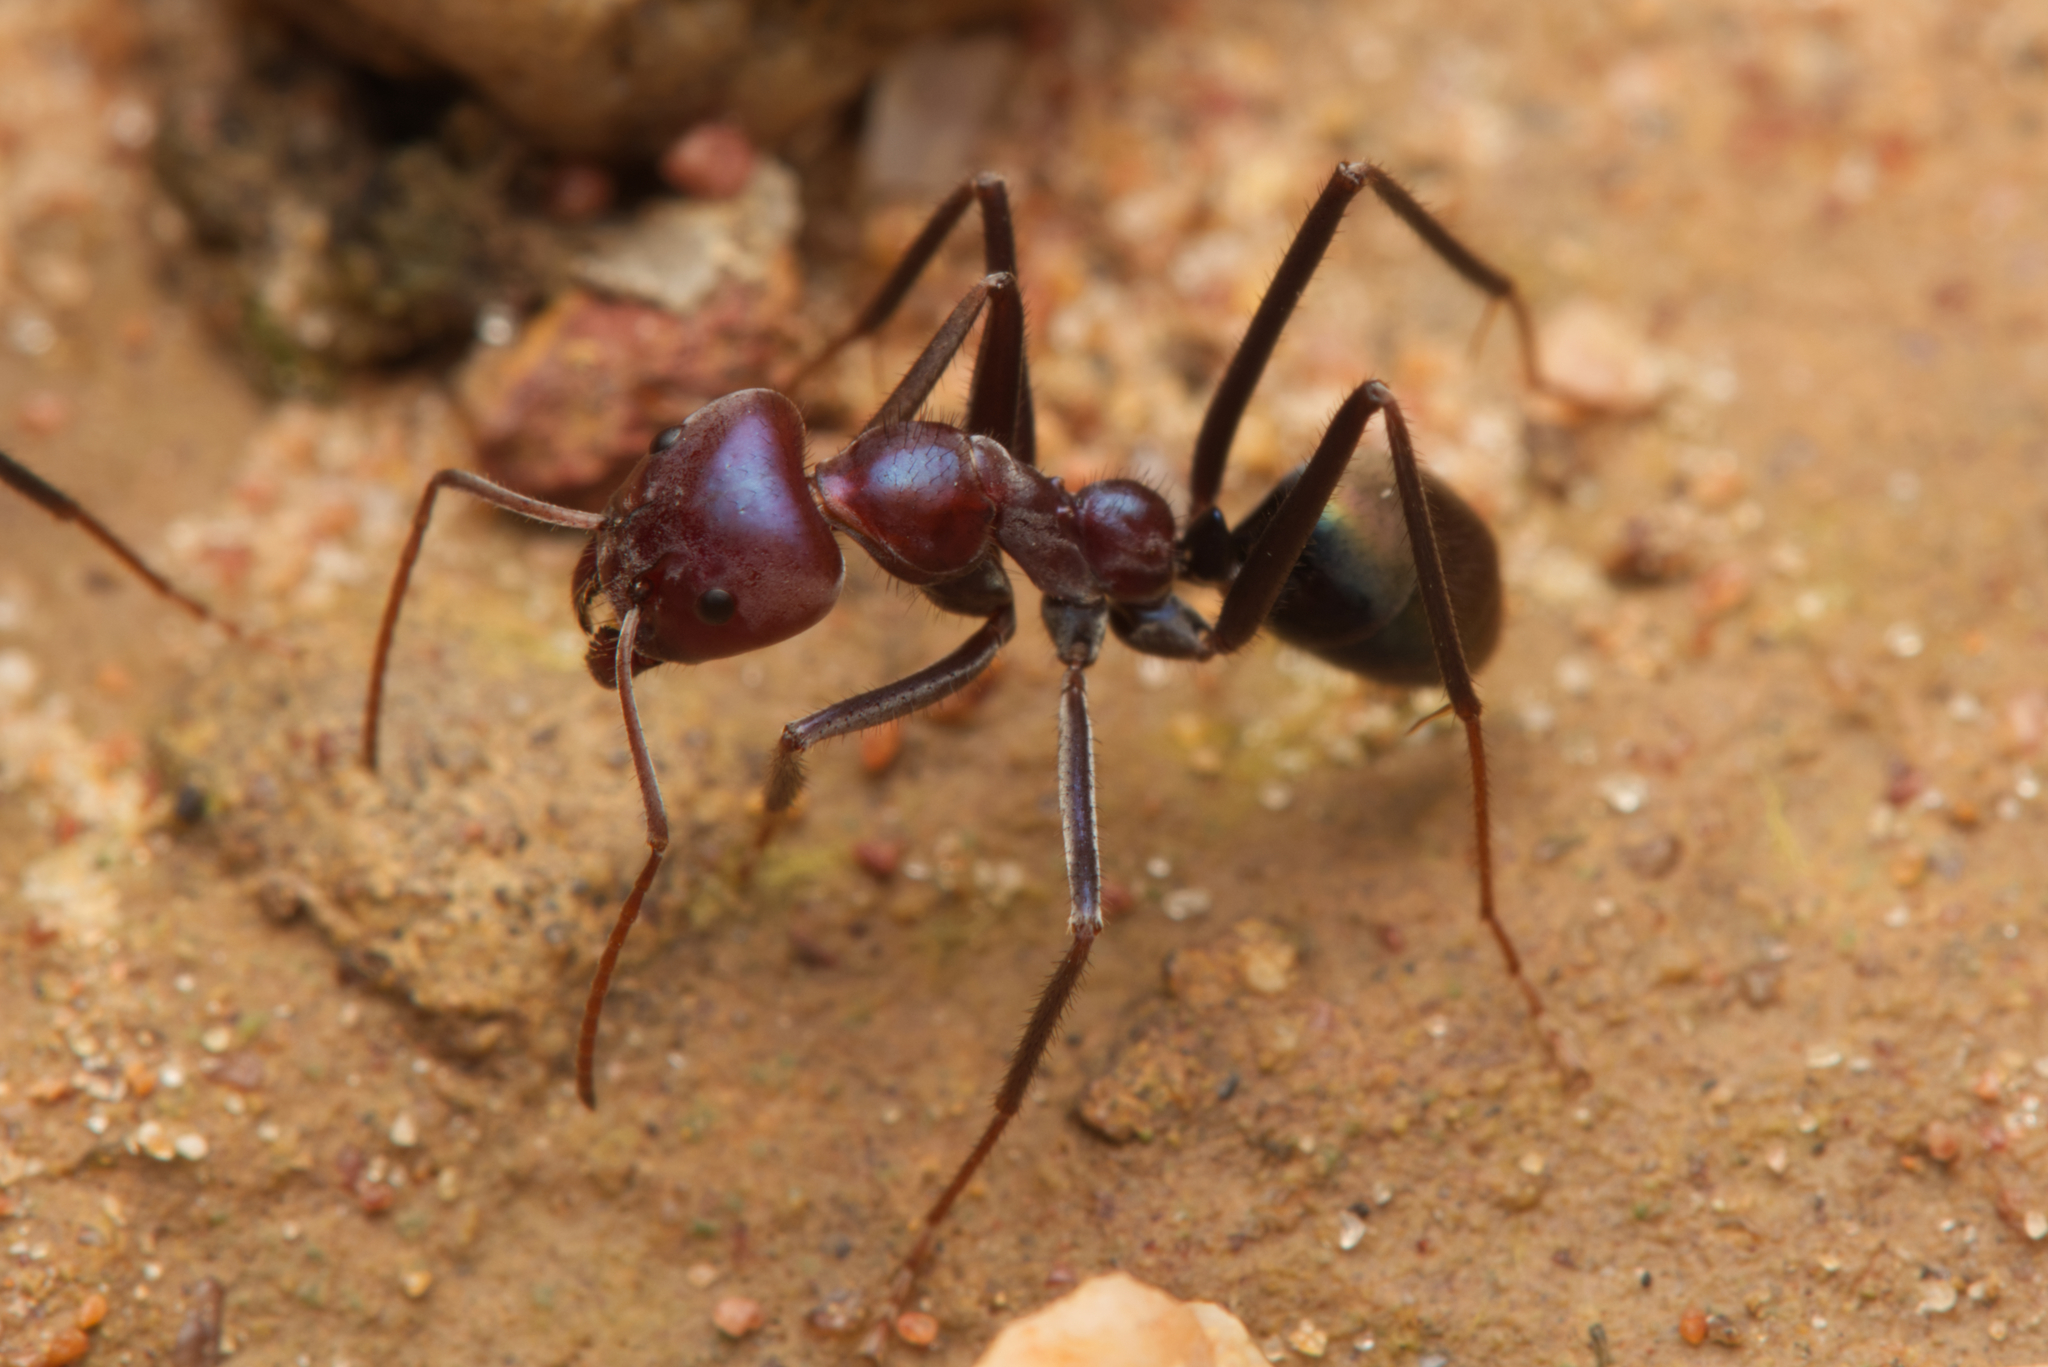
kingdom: Animalia
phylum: Arthropoda
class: Insecta
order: Hymenoptera
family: Formicidae
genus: Iridomyrmex
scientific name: Iridomyrmex purpureus
